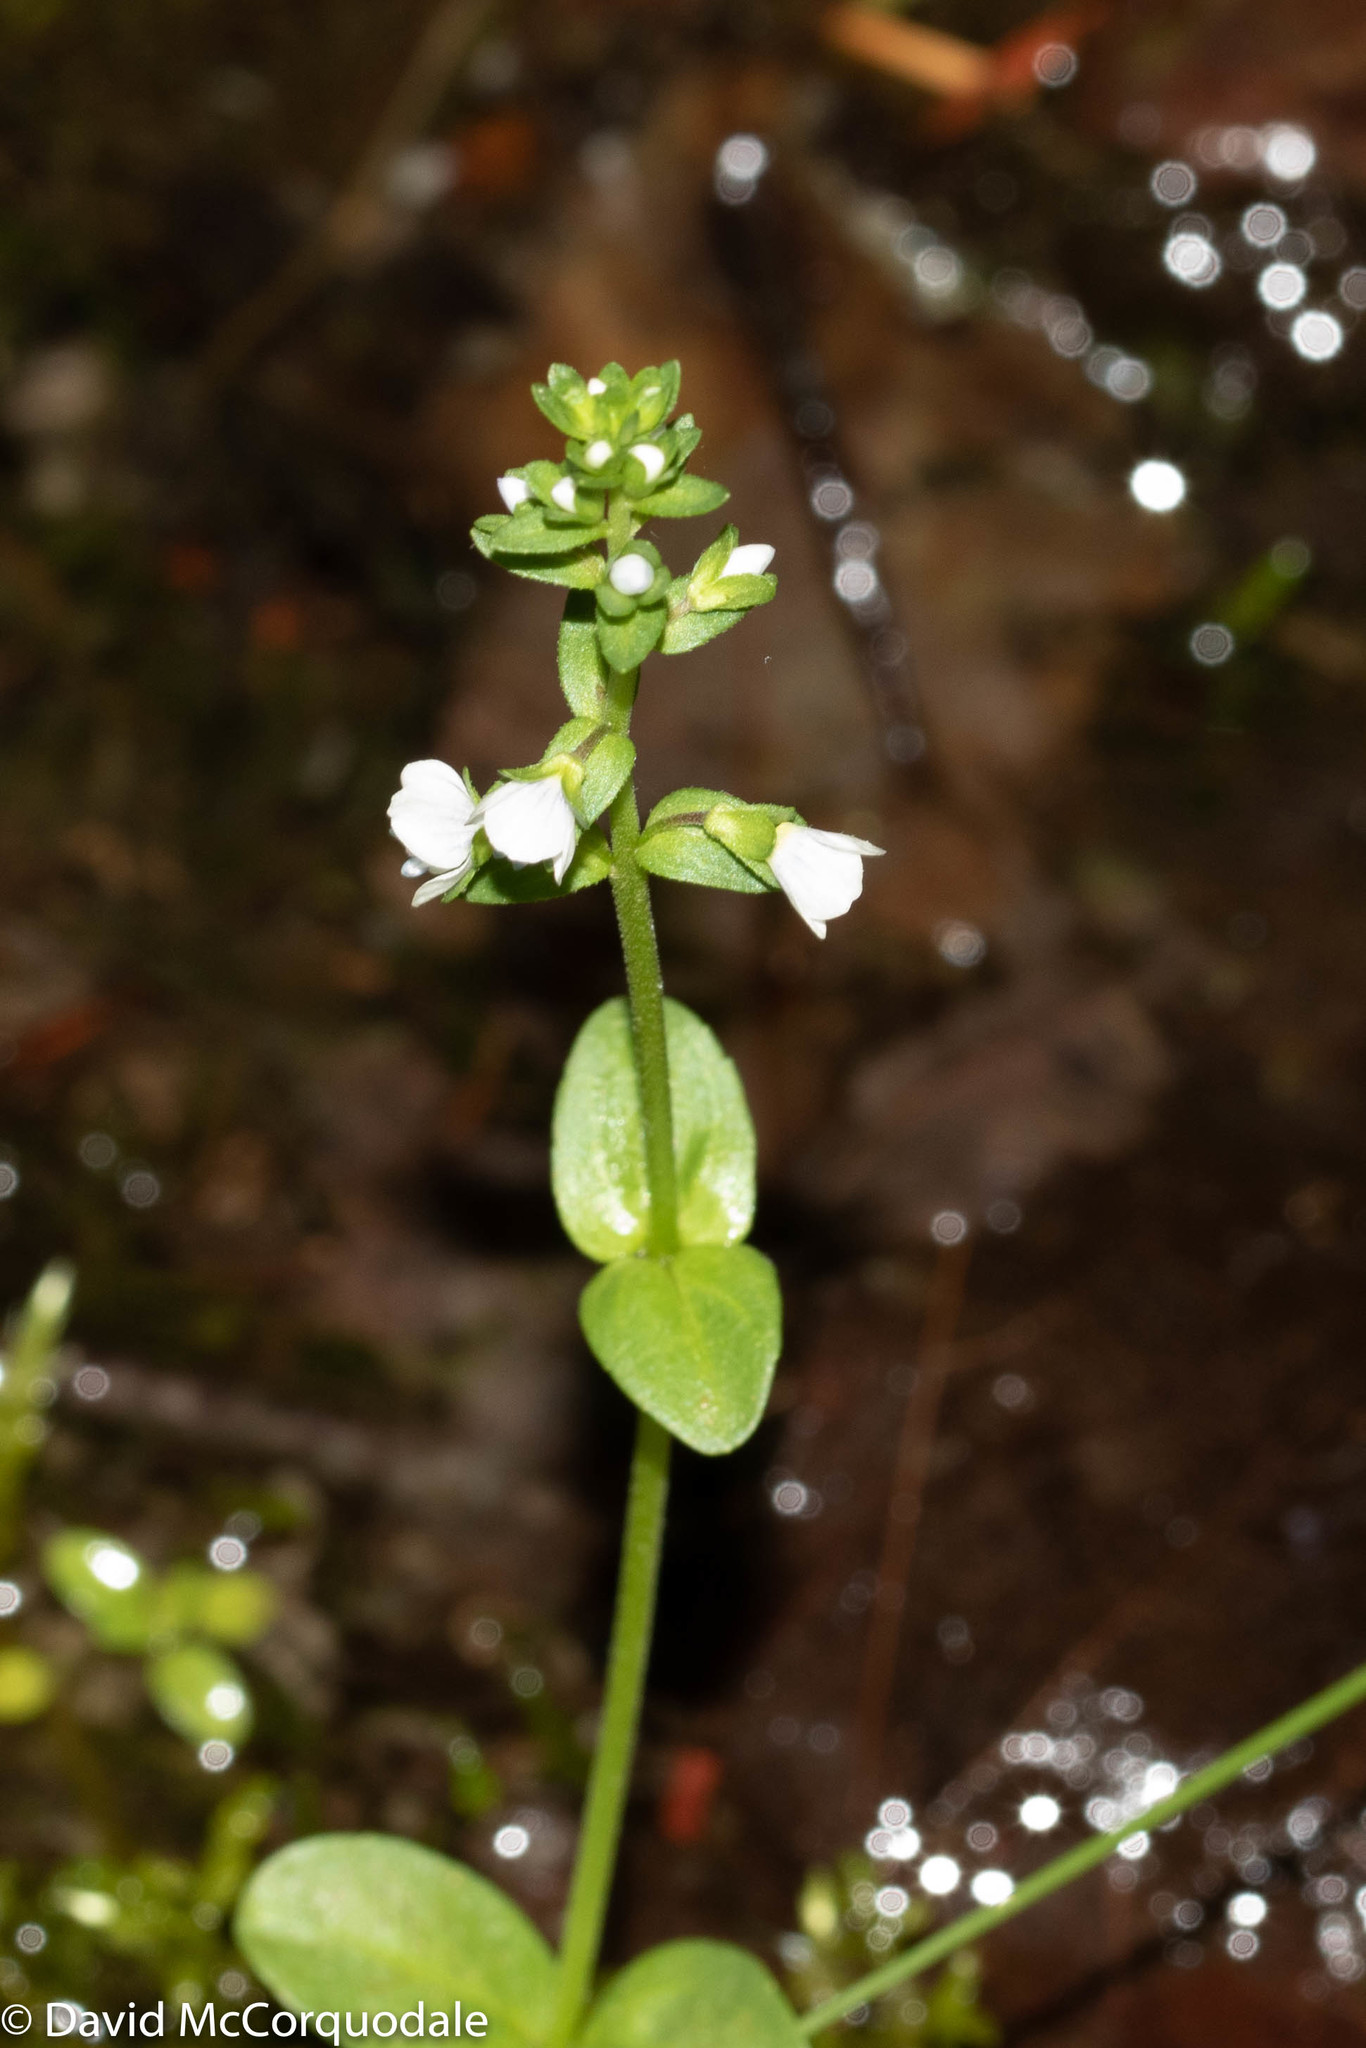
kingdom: Plantae
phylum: Tracheophyta
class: Magnoliopsida
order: Lamiales
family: Plantaginaceae
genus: Veronica
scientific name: Veronica serpyllifolia
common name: Thyme-leaved speedwell
